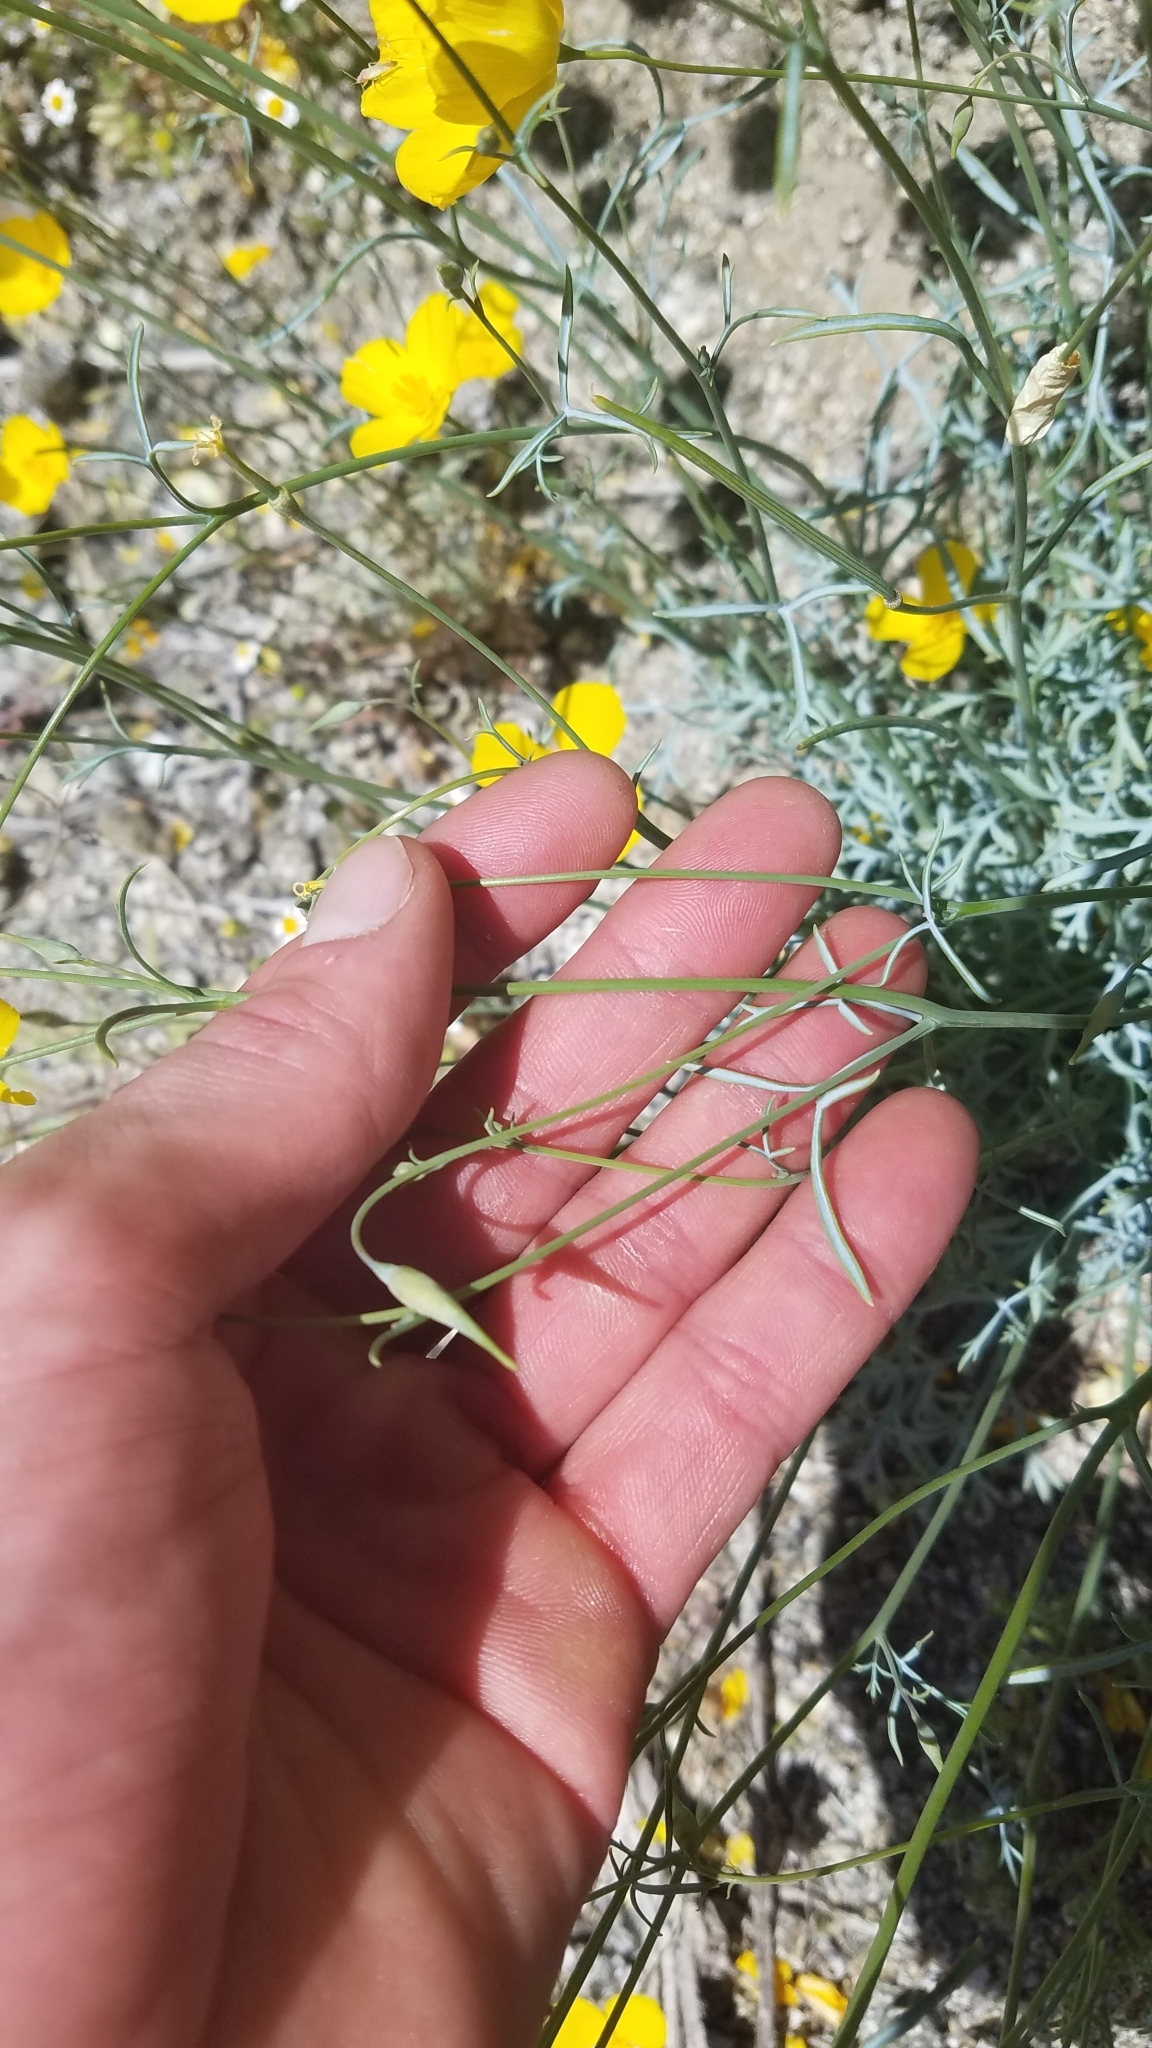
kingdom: Plantae
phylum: Tracheophyta
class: Magnoliopsida
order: Ranunculales
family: Papaveraceae
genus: Eschscholzia
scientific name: Eschscholzia parishii
